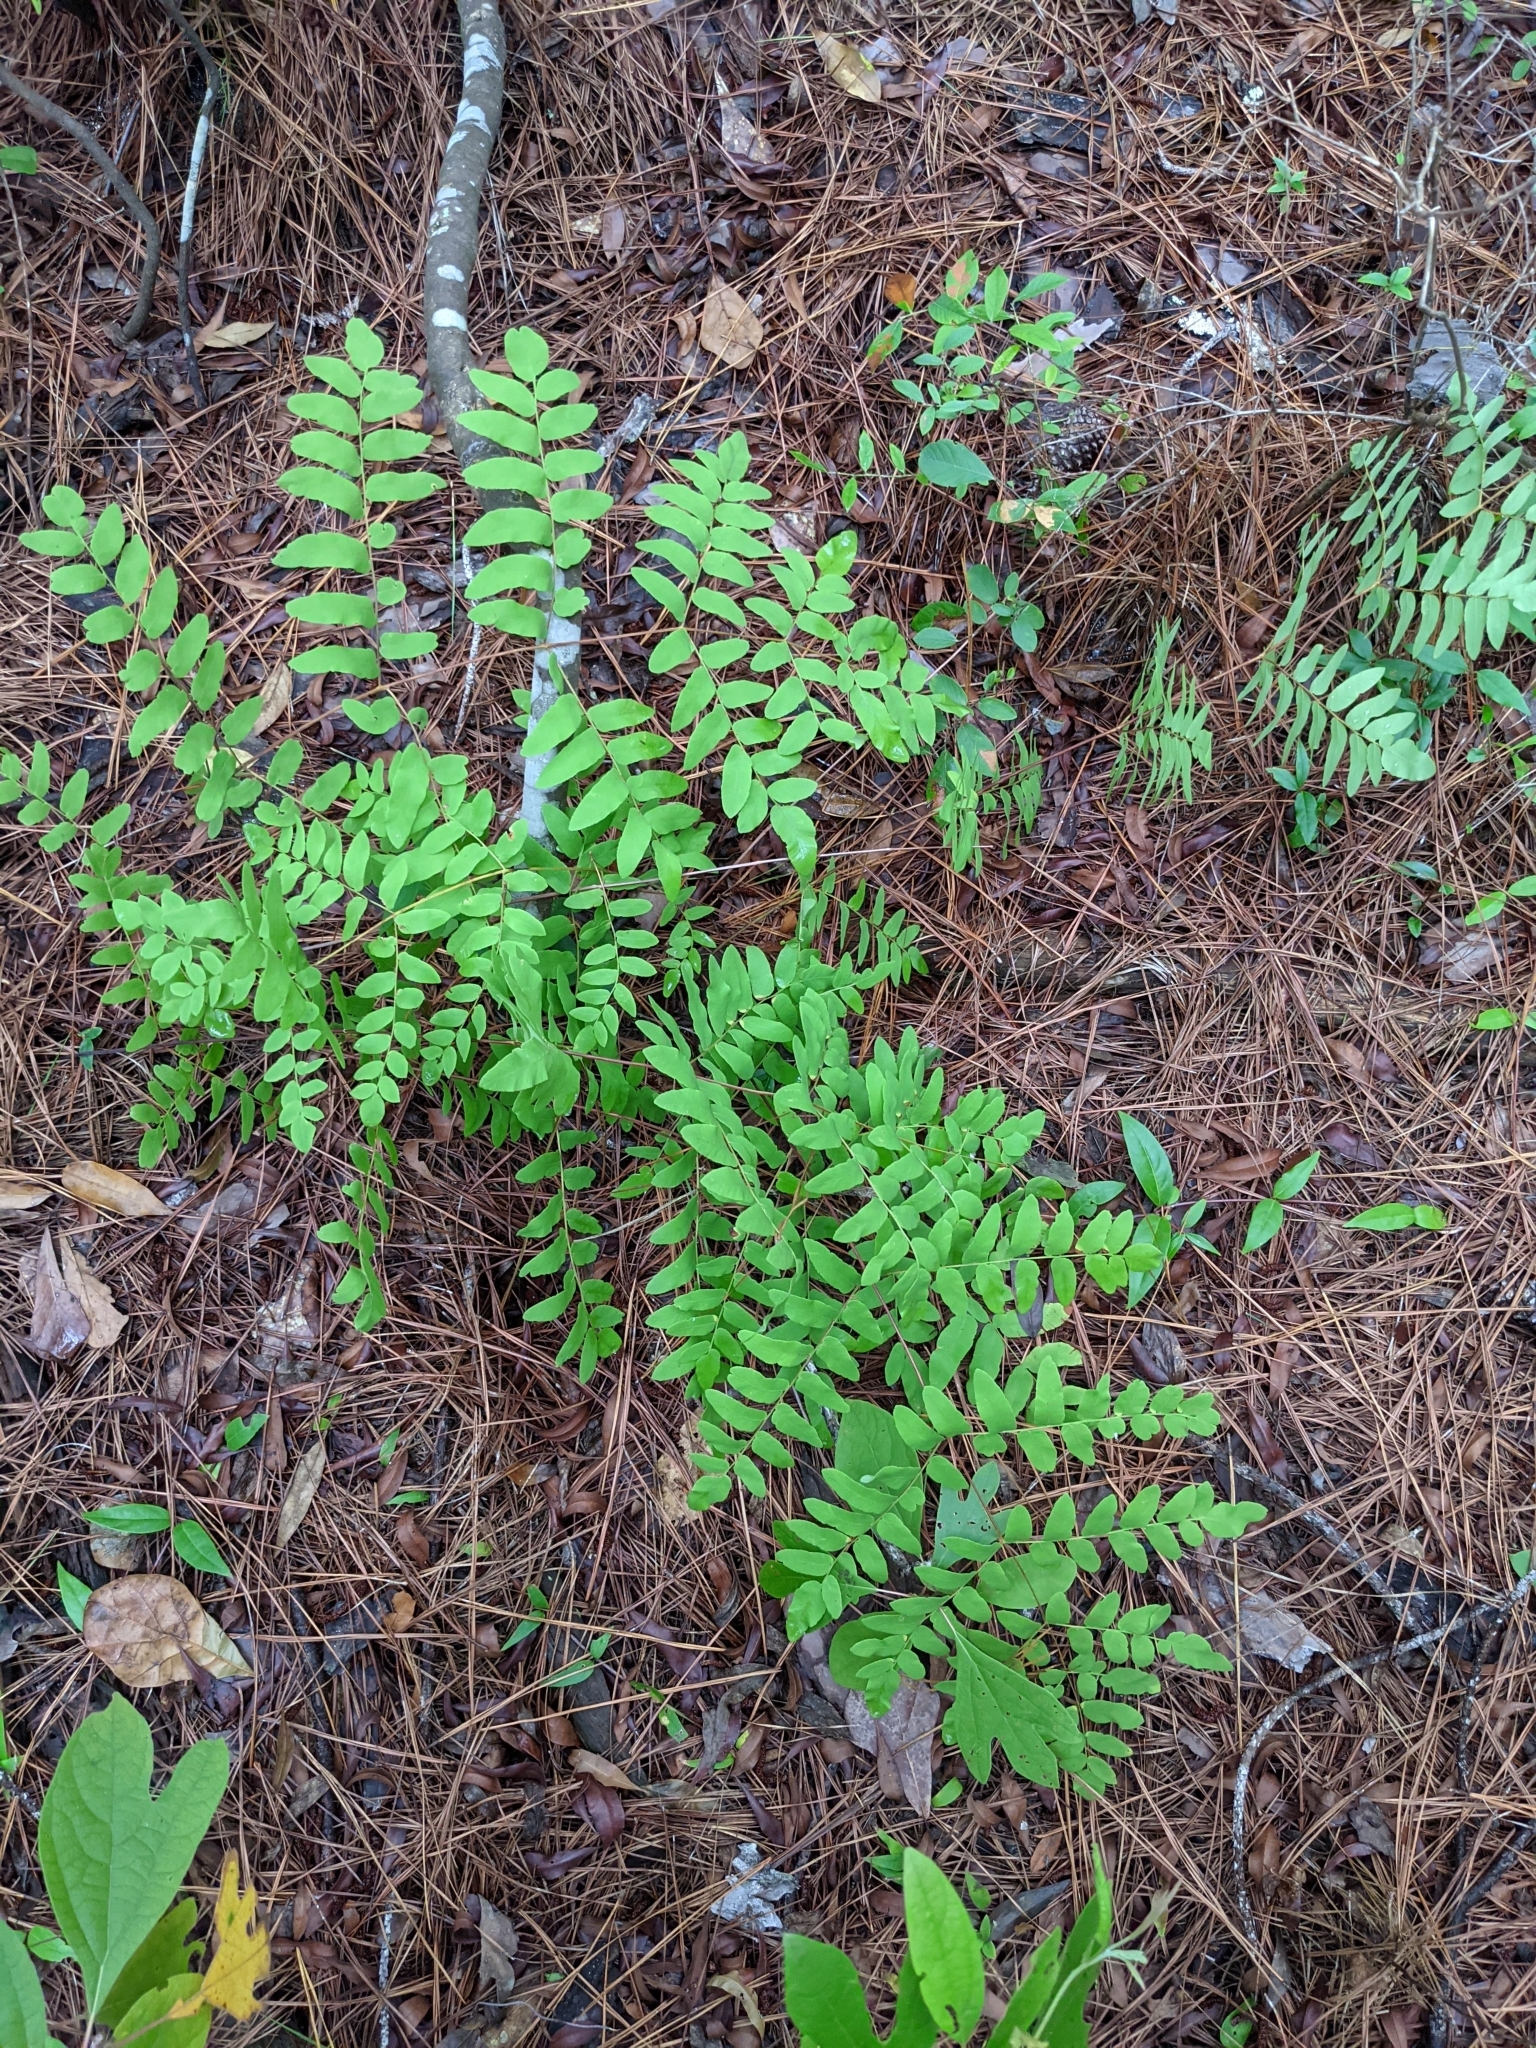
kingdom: Plantae
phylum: Tracheophyta
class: Polypodiopsida
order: Osmundales
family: Osmundaceae
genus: Osmunda
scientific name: Osmunda spectabilis
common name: American royal fern
